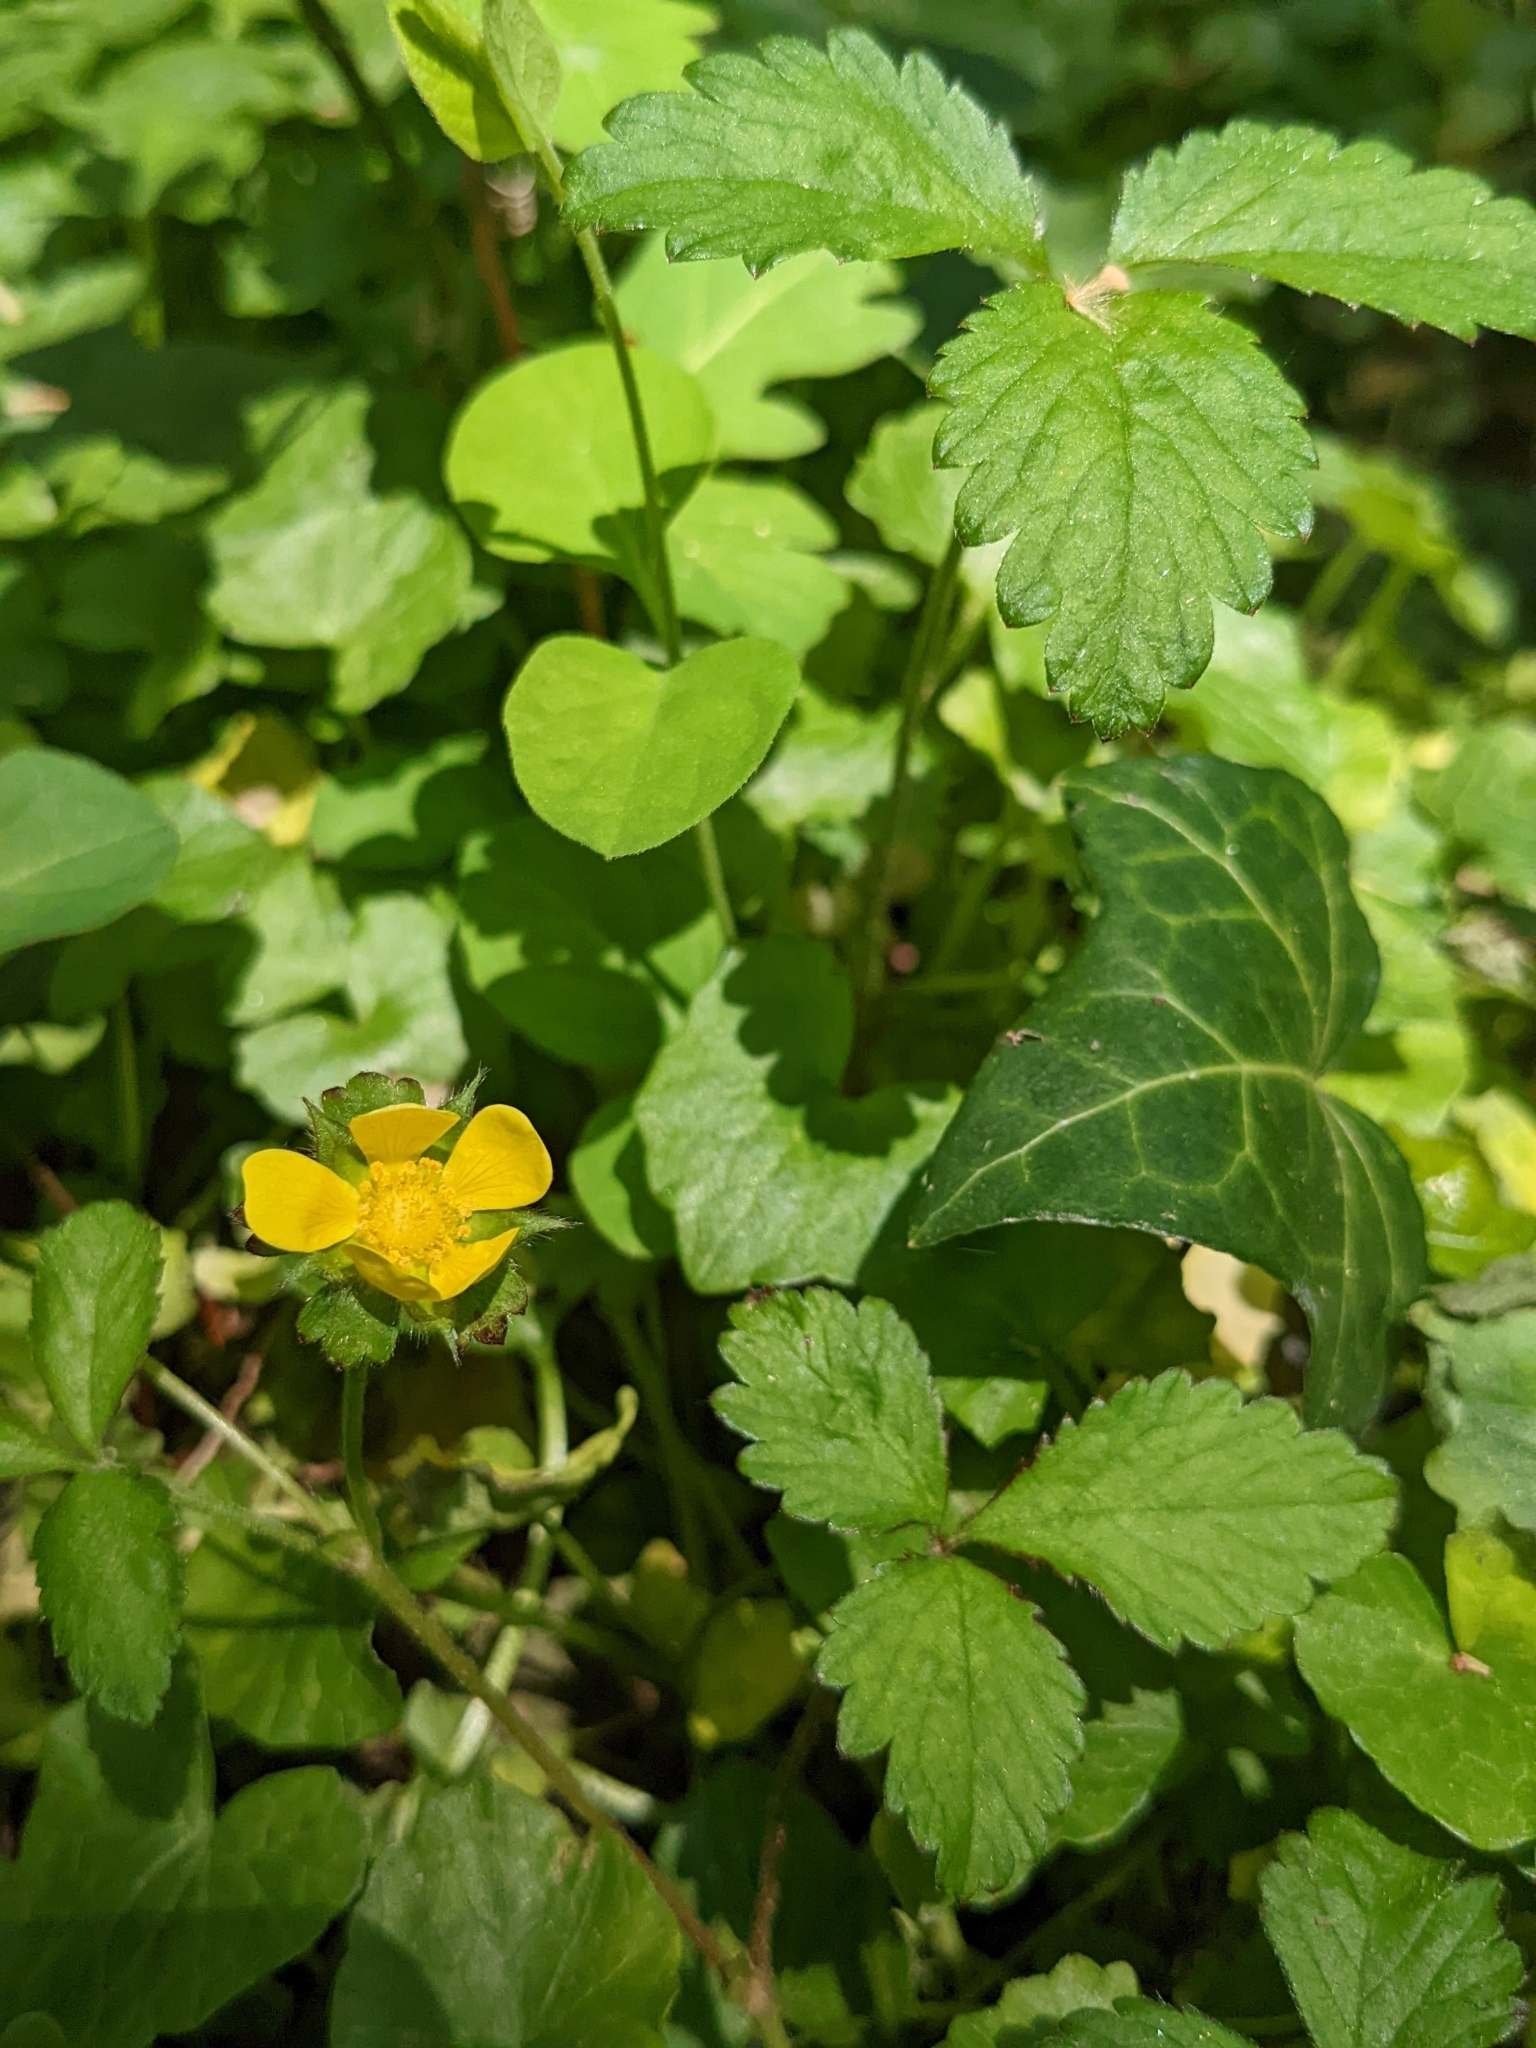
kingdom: Plantae
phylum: Tracheophyta
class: Magnoliopsida
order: Rosales
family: Rosaceae
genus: Potentilla
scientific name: Potentilla indica
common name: Yellow-flowered strawberry
